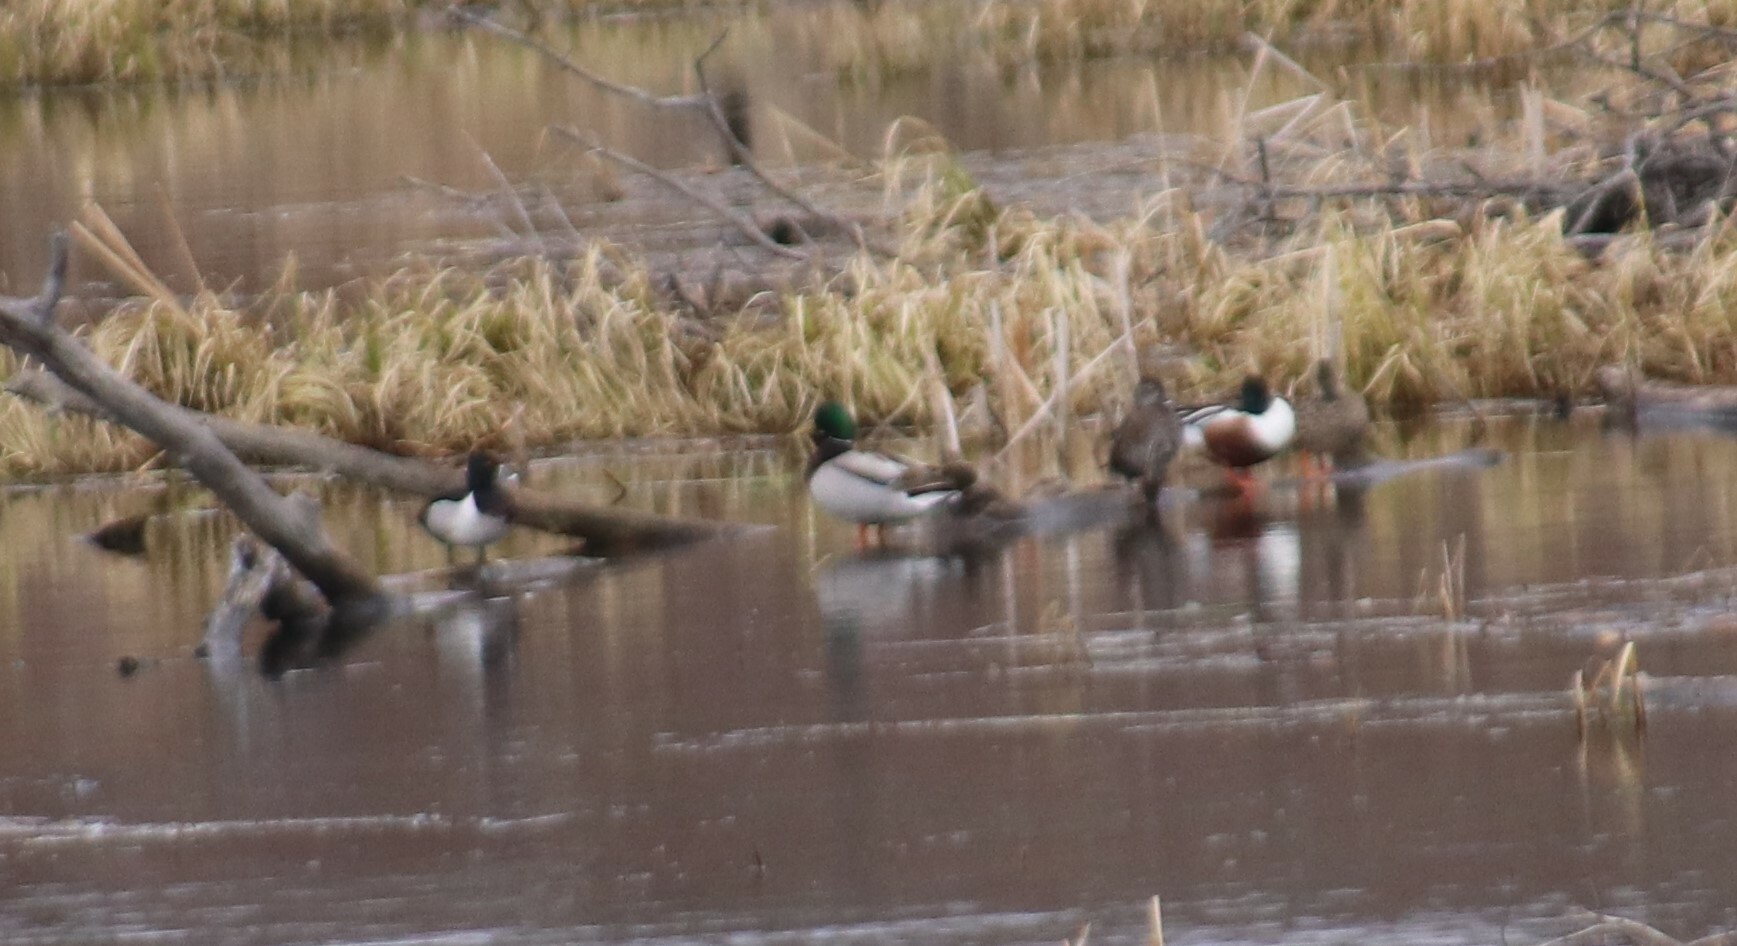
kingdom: Animalia
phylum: Chordata
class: Aves
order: Anseriformes
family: Anatidae
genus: Spatula
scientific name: Spatula clypeata
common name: Northern shoveler
